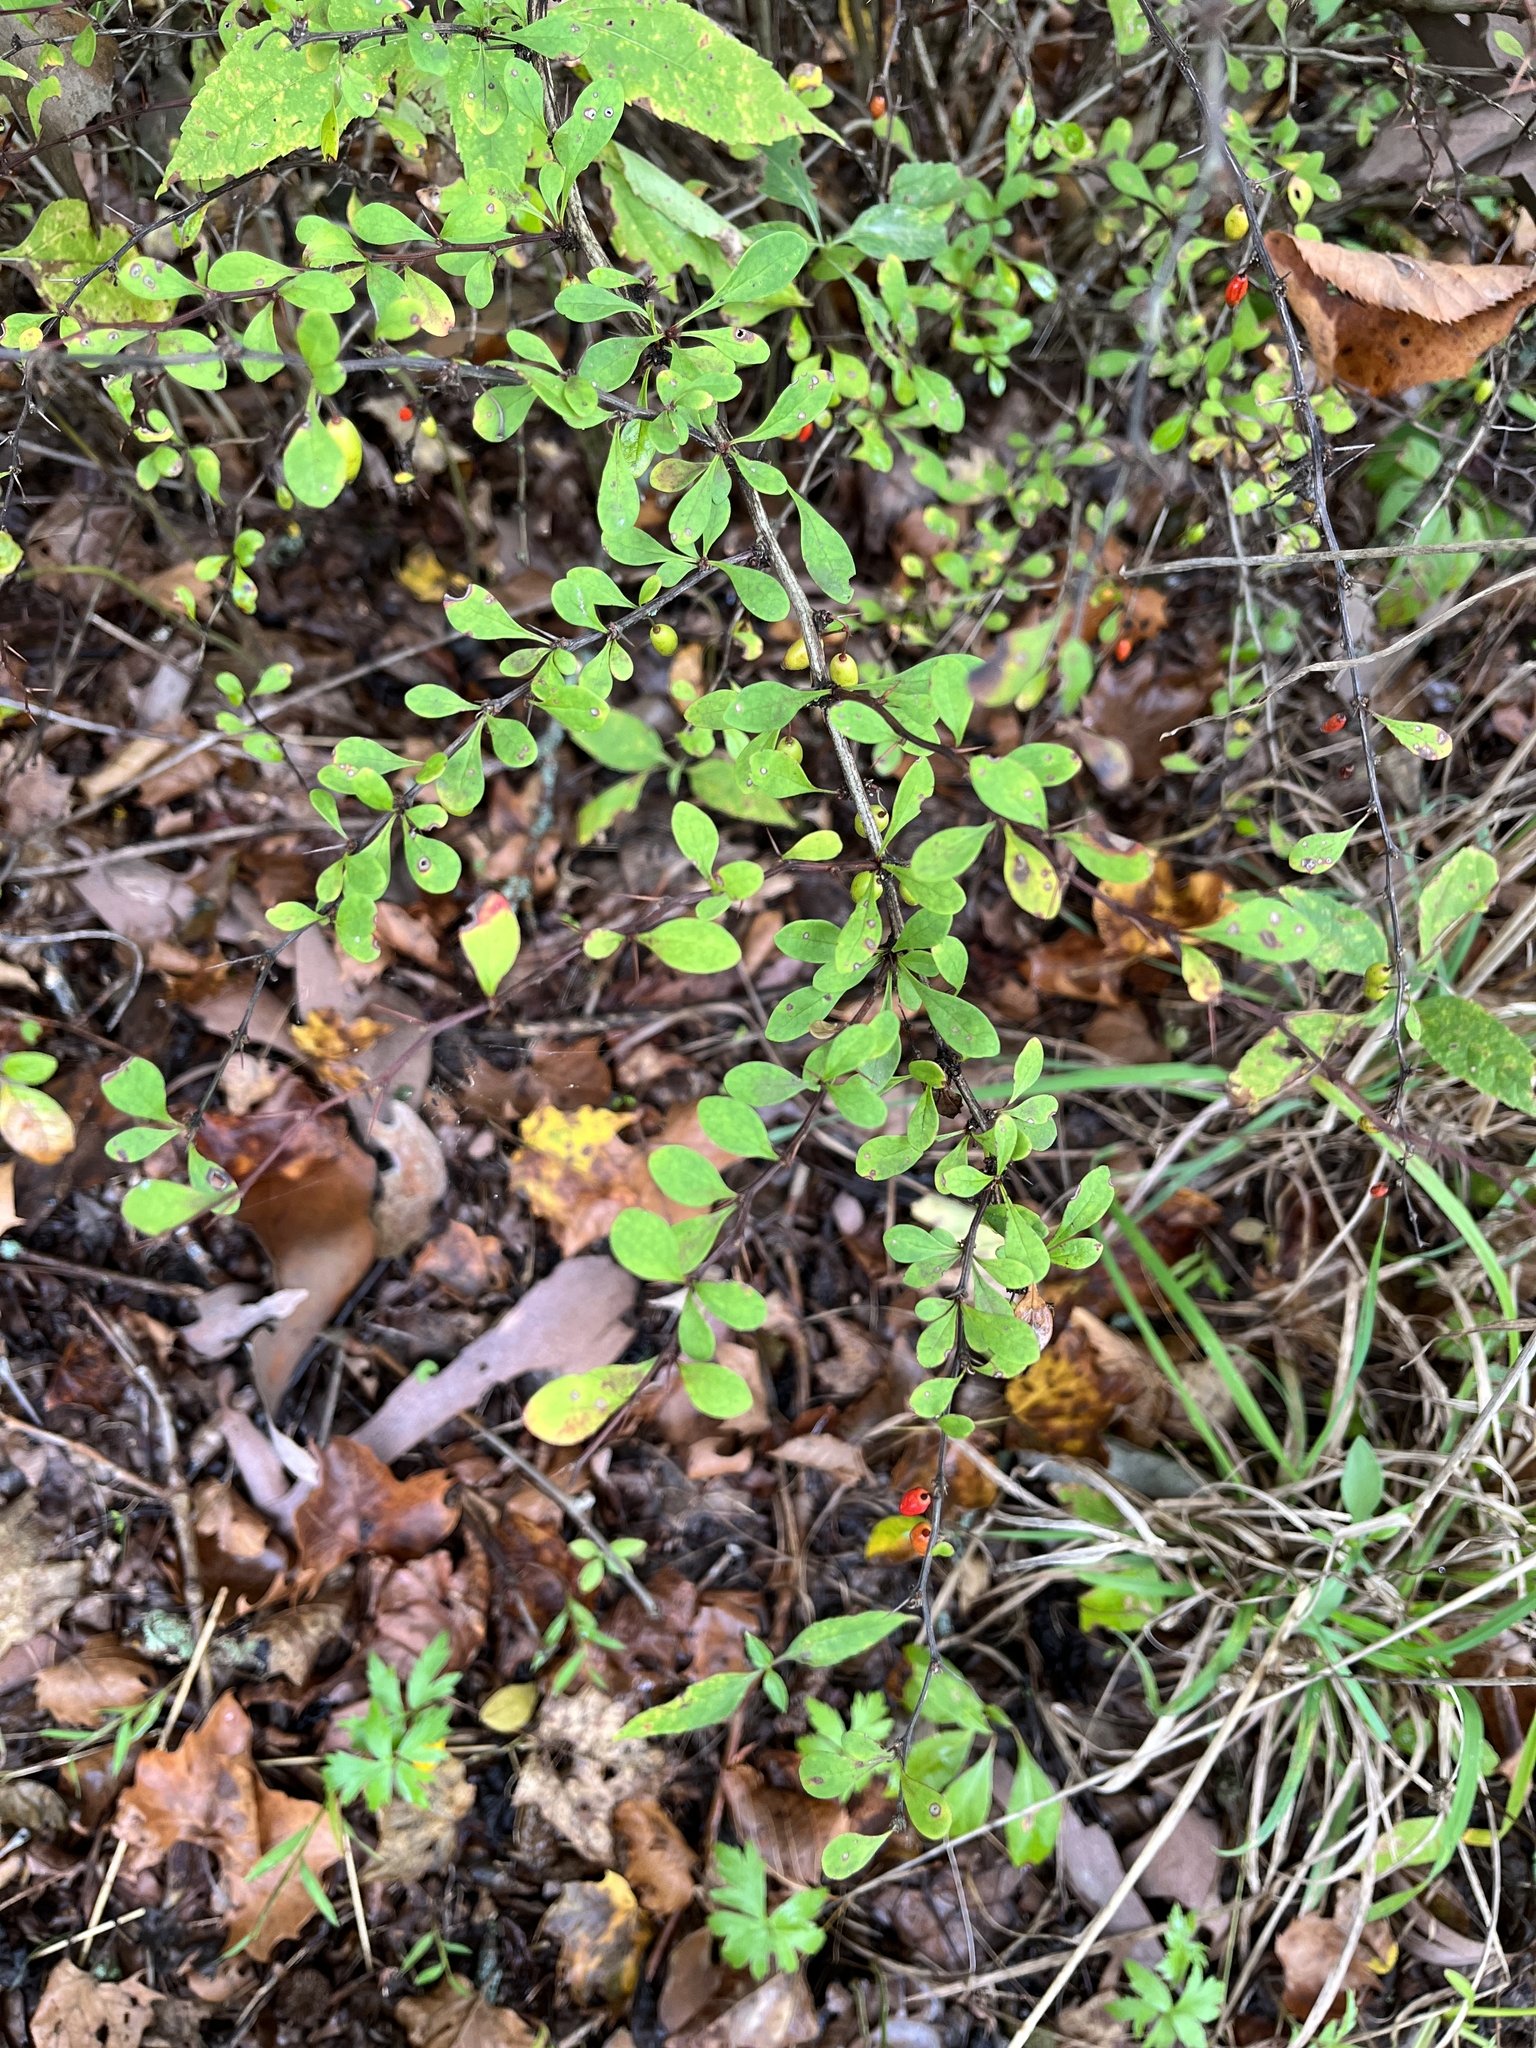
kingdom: Plantae
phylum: Tracheophyta
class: Magnoliopsida
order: Ranunculales
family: Berberidaceae
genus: Berberis
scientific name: Berberis thunbergii
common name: Japanese barberry
